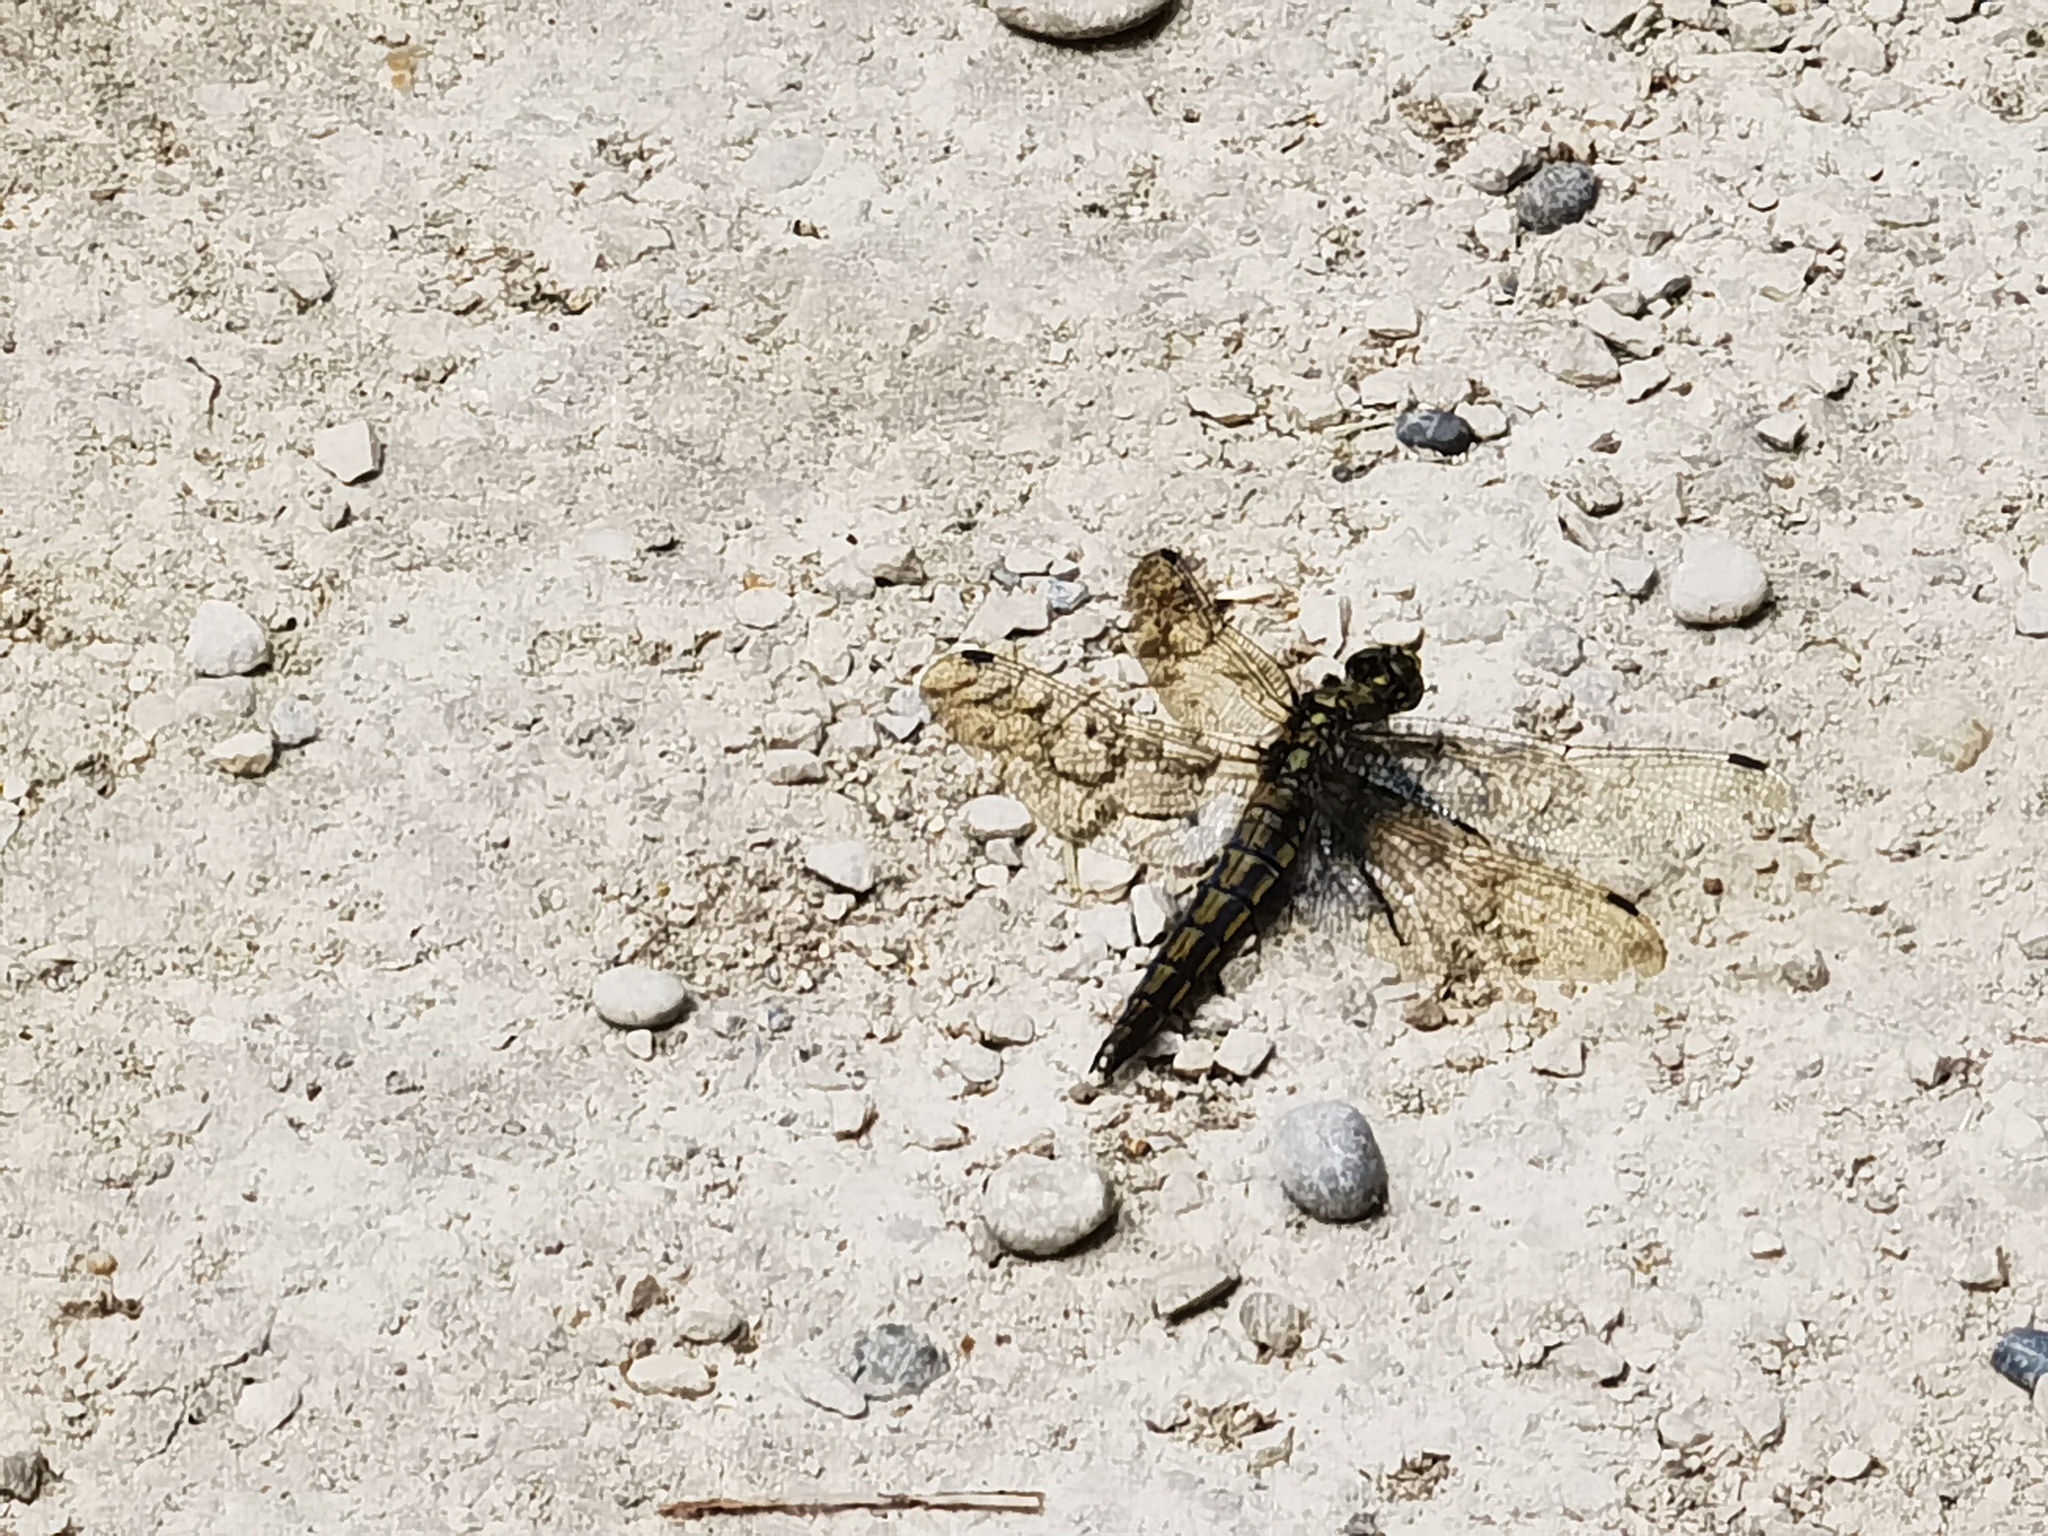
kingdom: Animalia
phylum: Arthropoda
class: Insecta
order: Odonata
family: Libellulidae
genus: Orthetrum
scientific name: Orthetrum cancellatum
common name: Black-tailed skimmer
